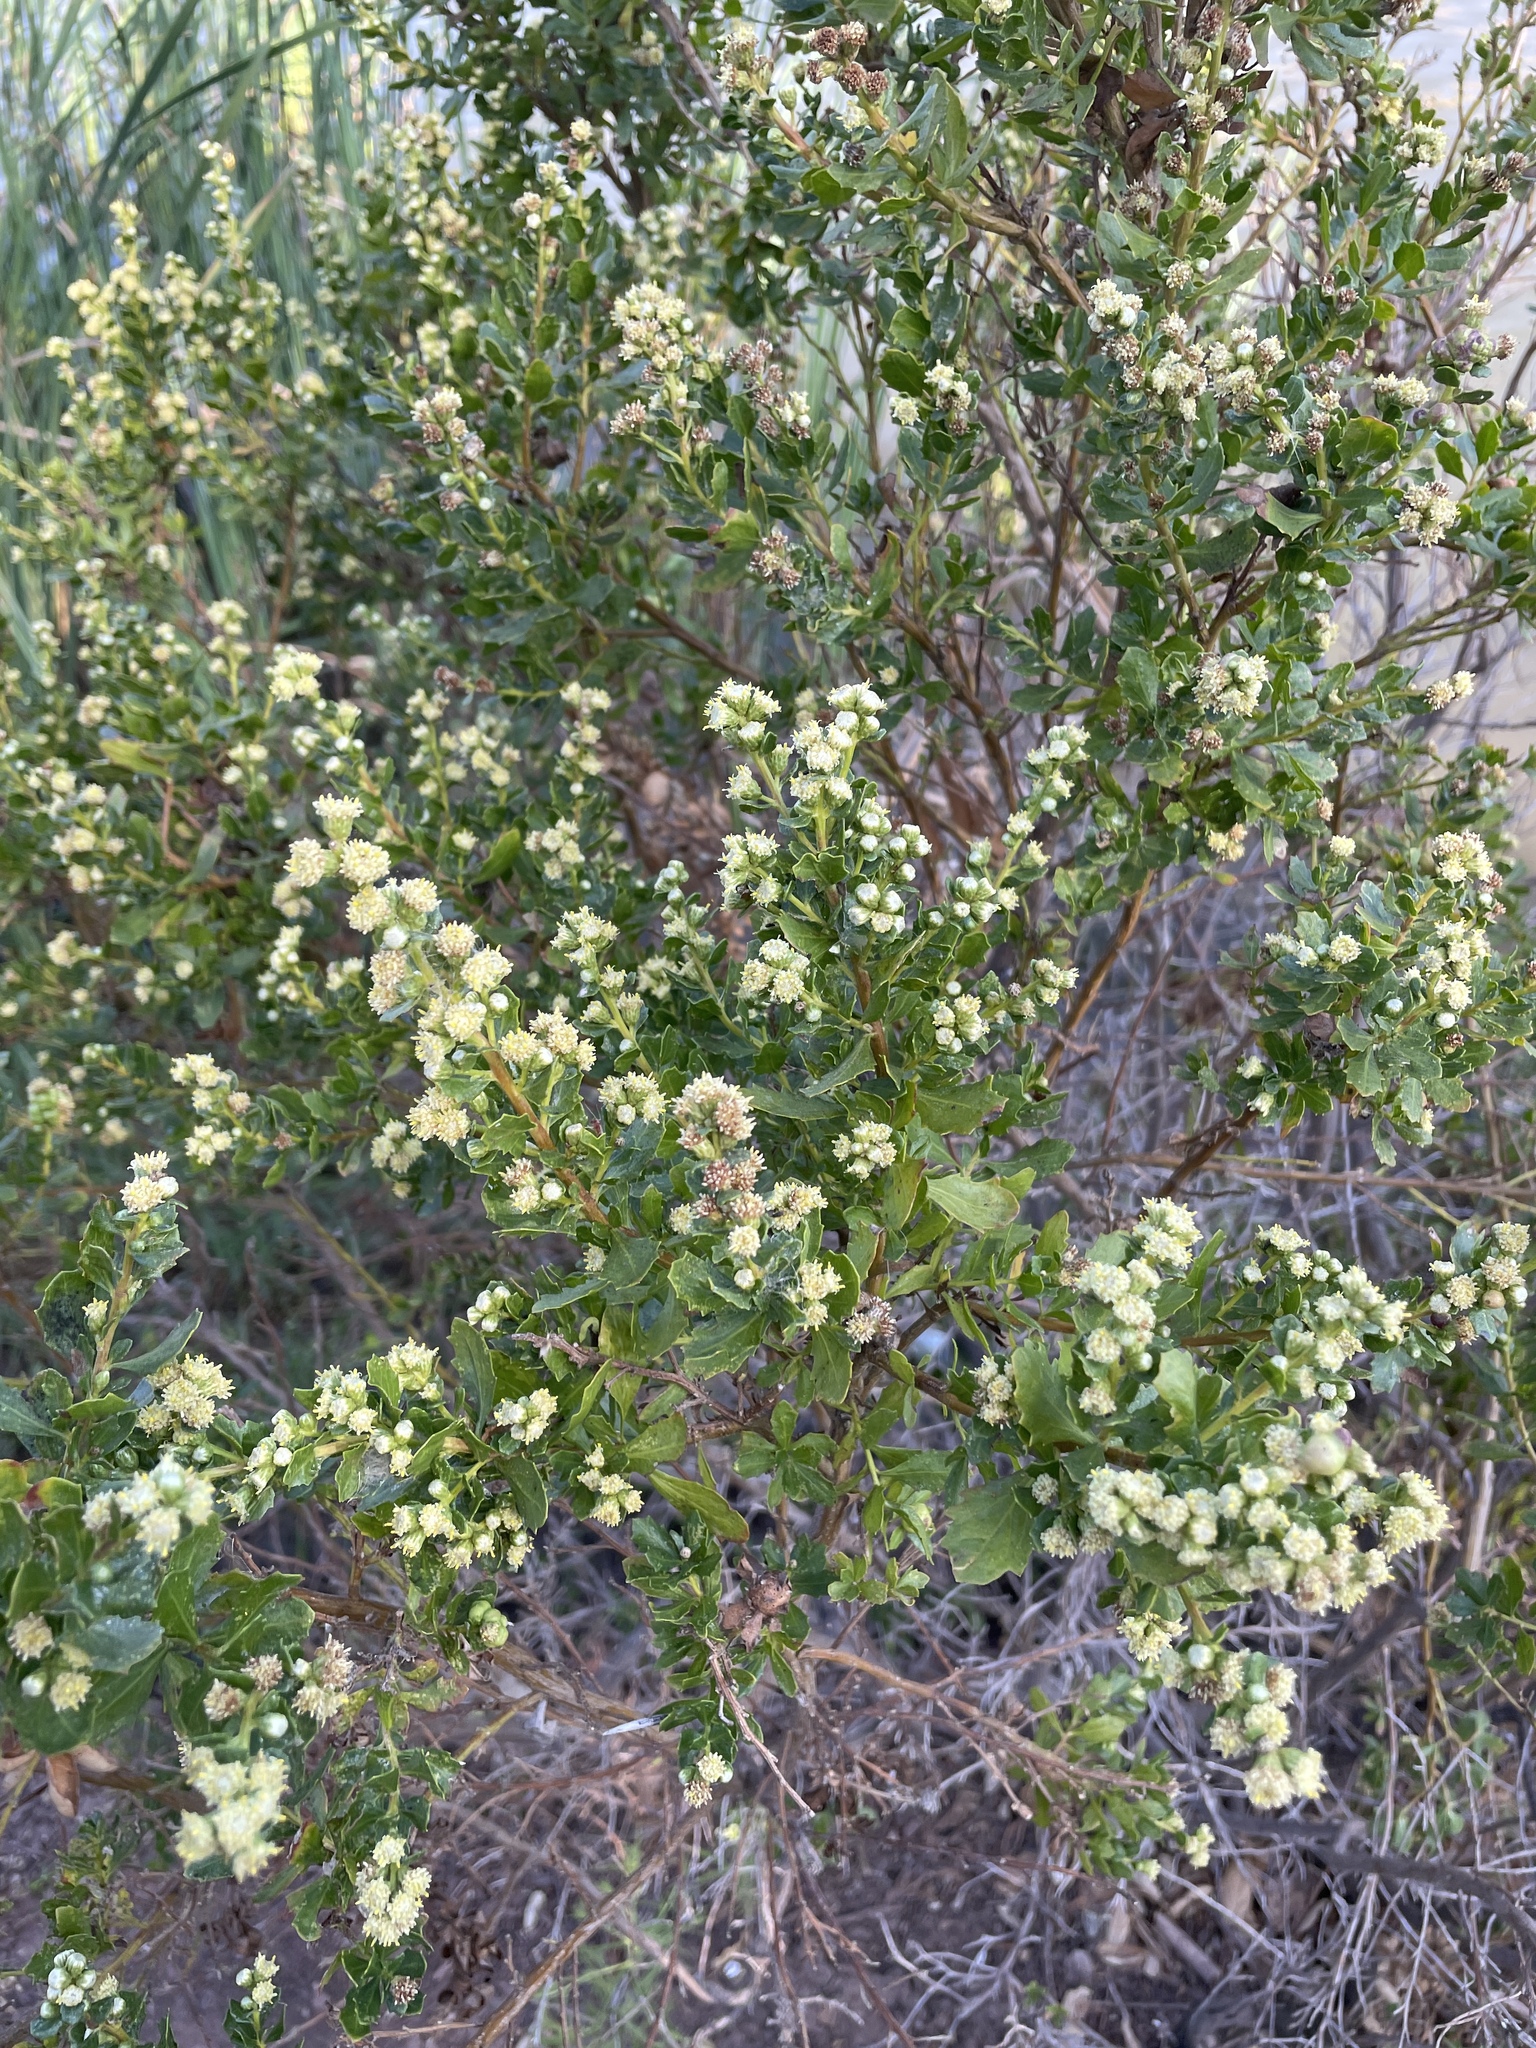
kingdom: Plantae
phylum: Tracheophyta
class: Magnoliopsida
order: Asterales
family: Asteraceae
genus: Baccharis
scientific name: Baccharis pilularis
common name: Coyotebrush
